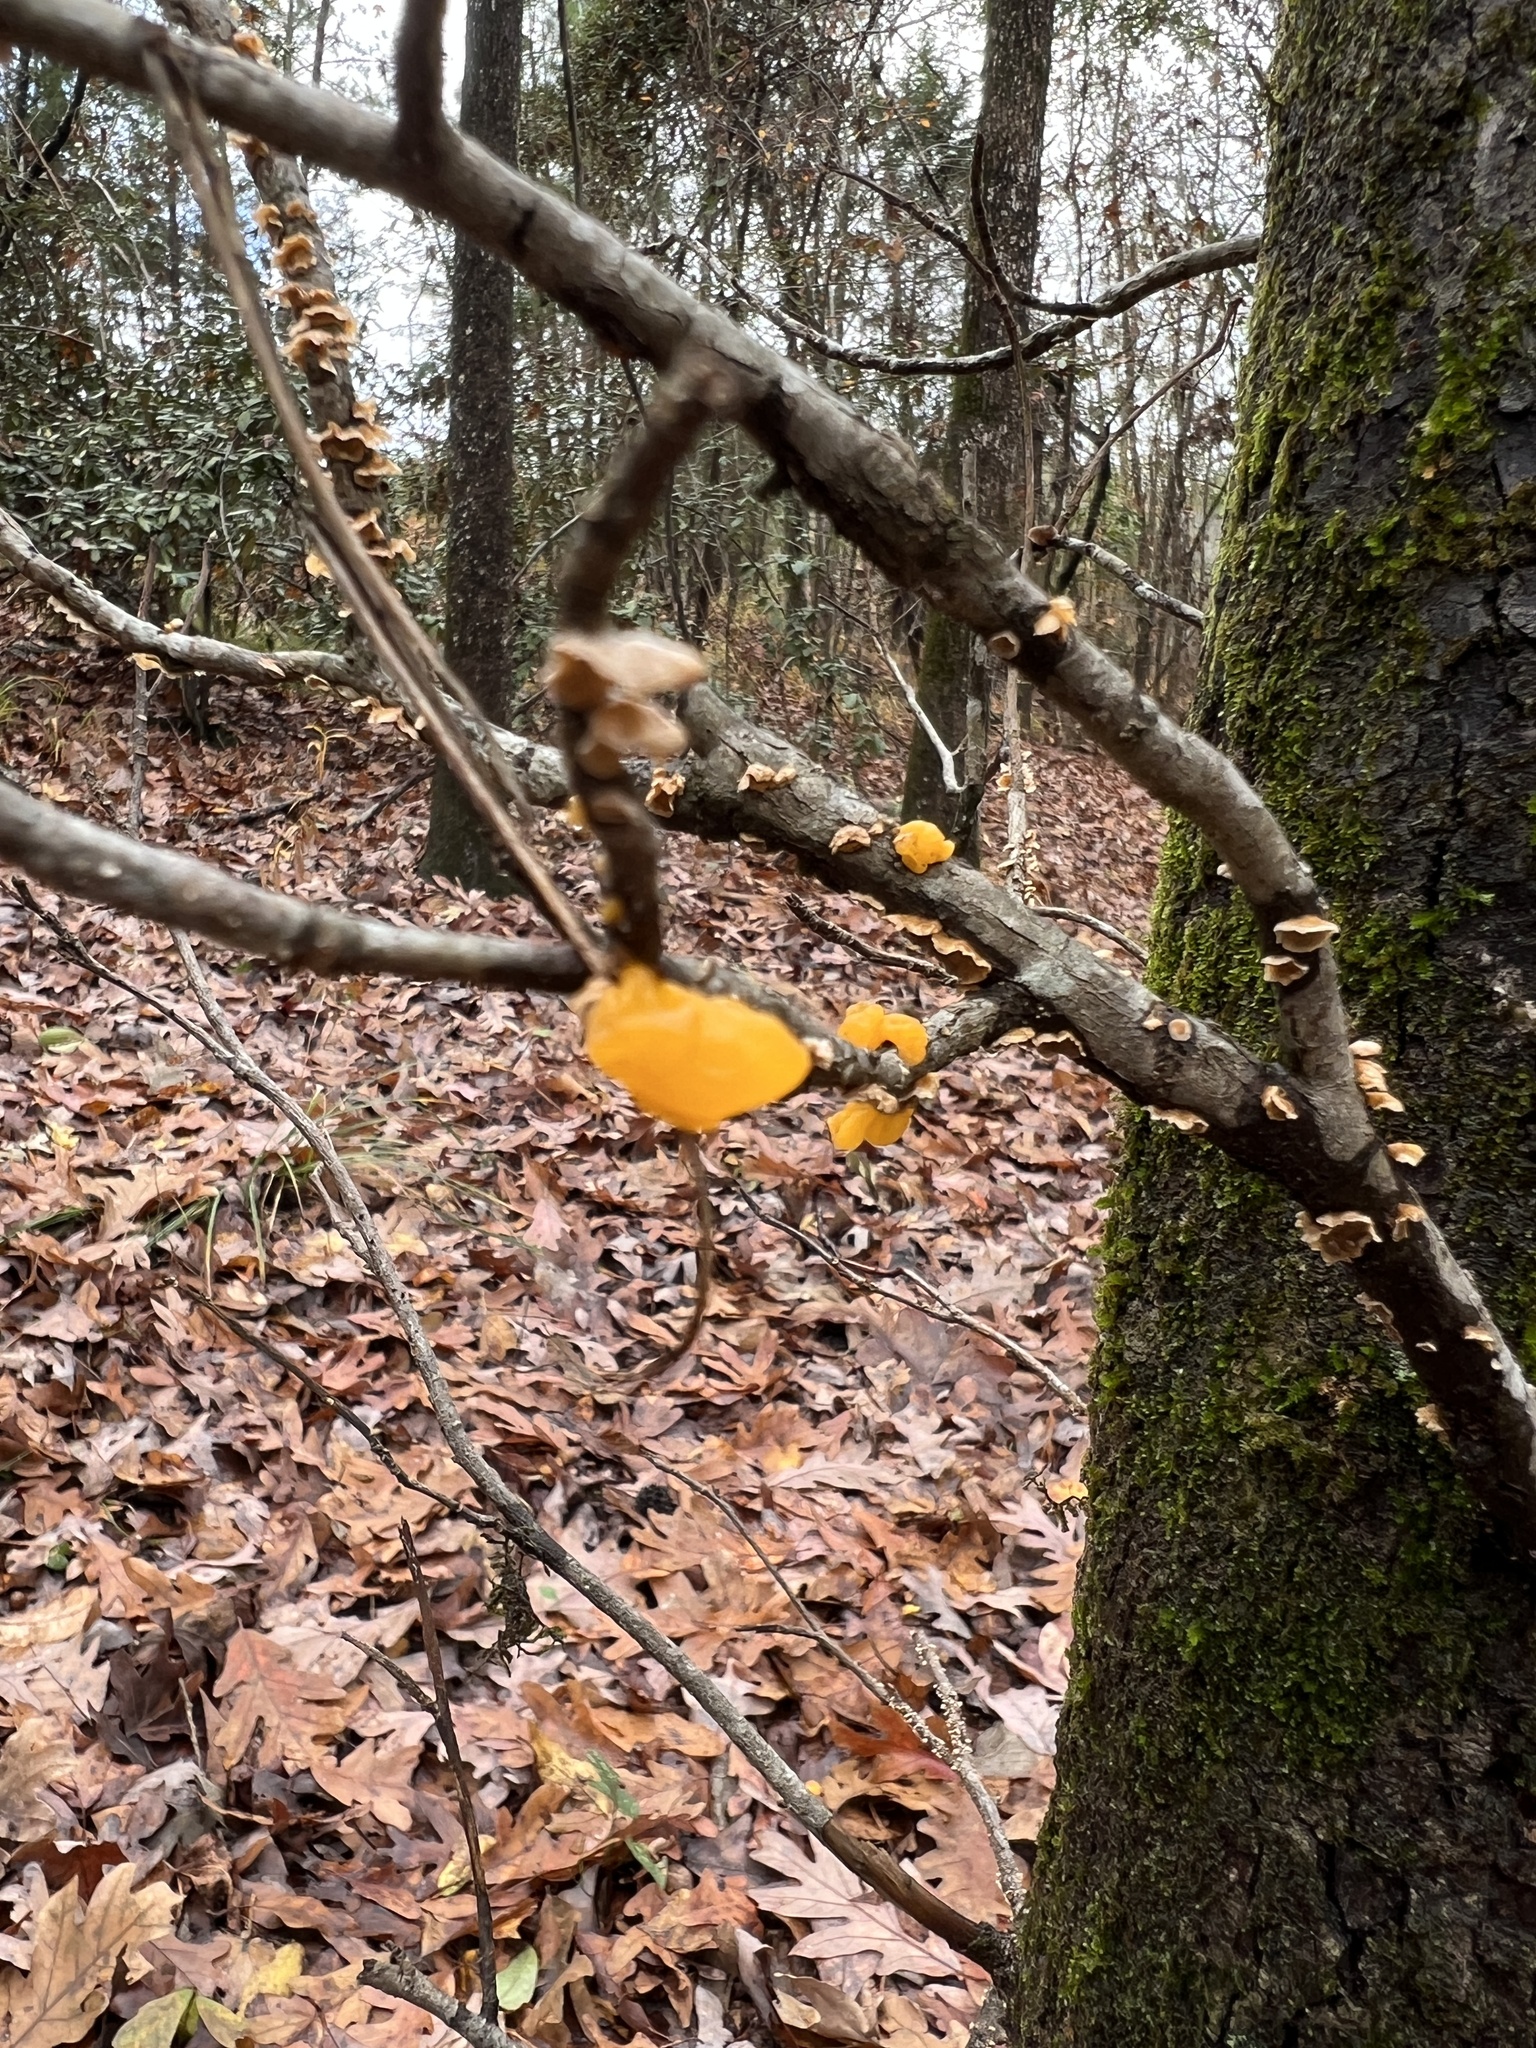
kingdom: Fungi
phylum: Basidiomycota
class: Tremellomycetes
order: Tremellales
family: Tremellaceae
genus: Tremella
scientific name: Tremella mesenterica
